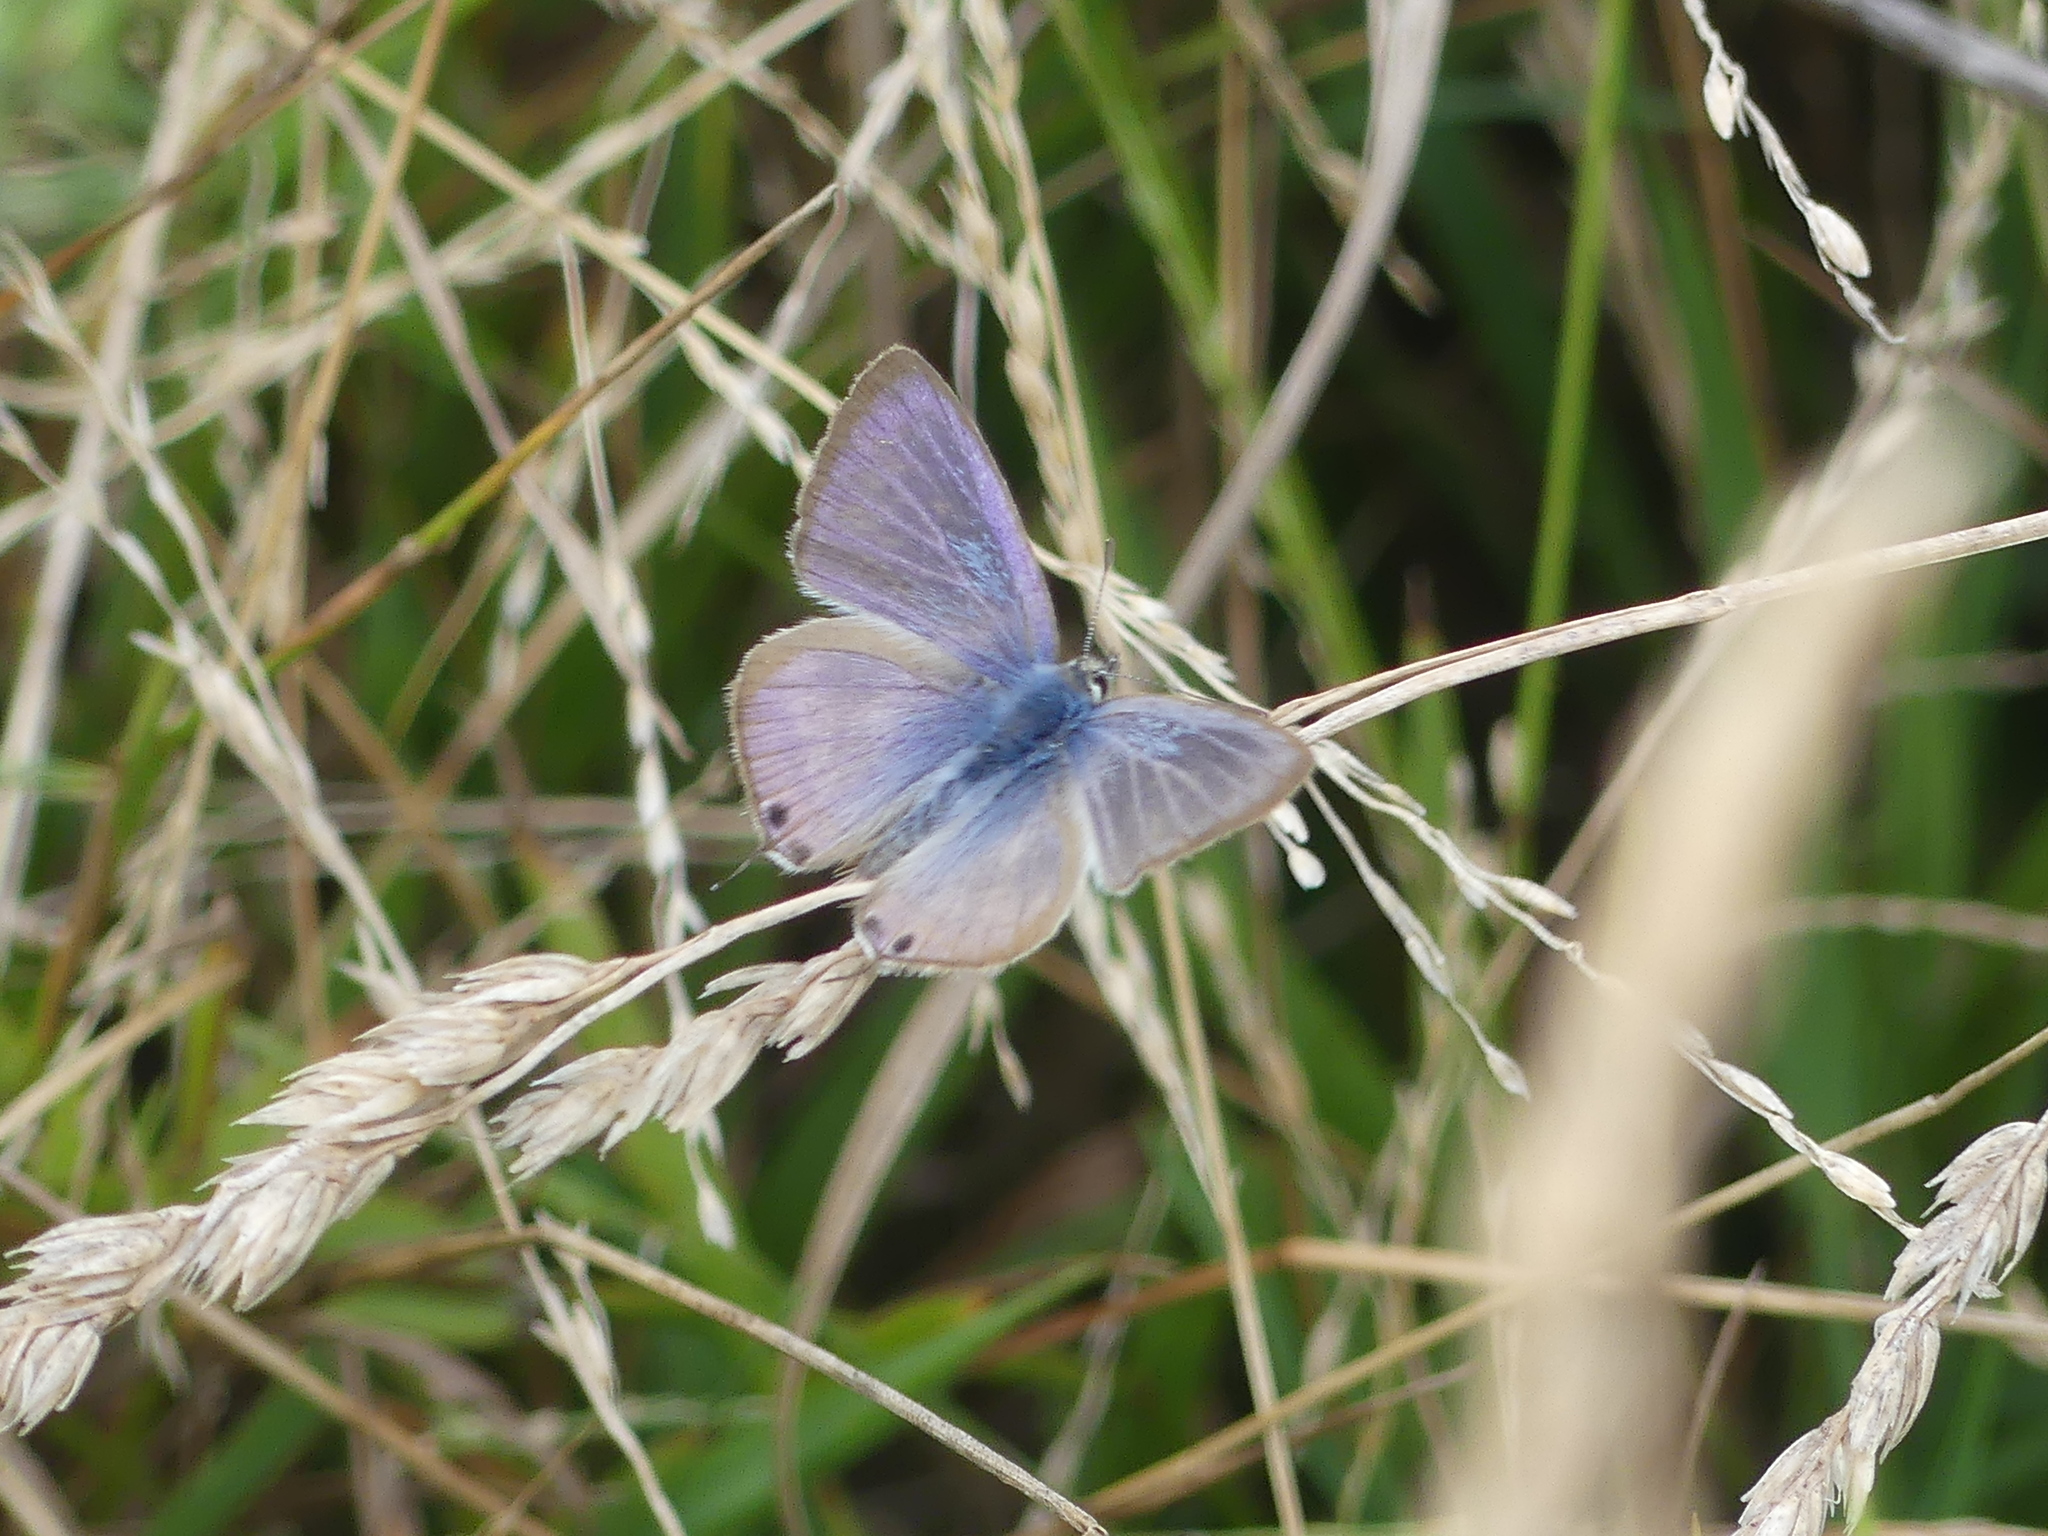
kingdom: Animalia
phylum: Arthropoda
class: Insecta
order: Lepidoptera
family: Lycaenidae
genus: Lampides
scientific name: Lampides boeticus
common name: Long-tailed blue
